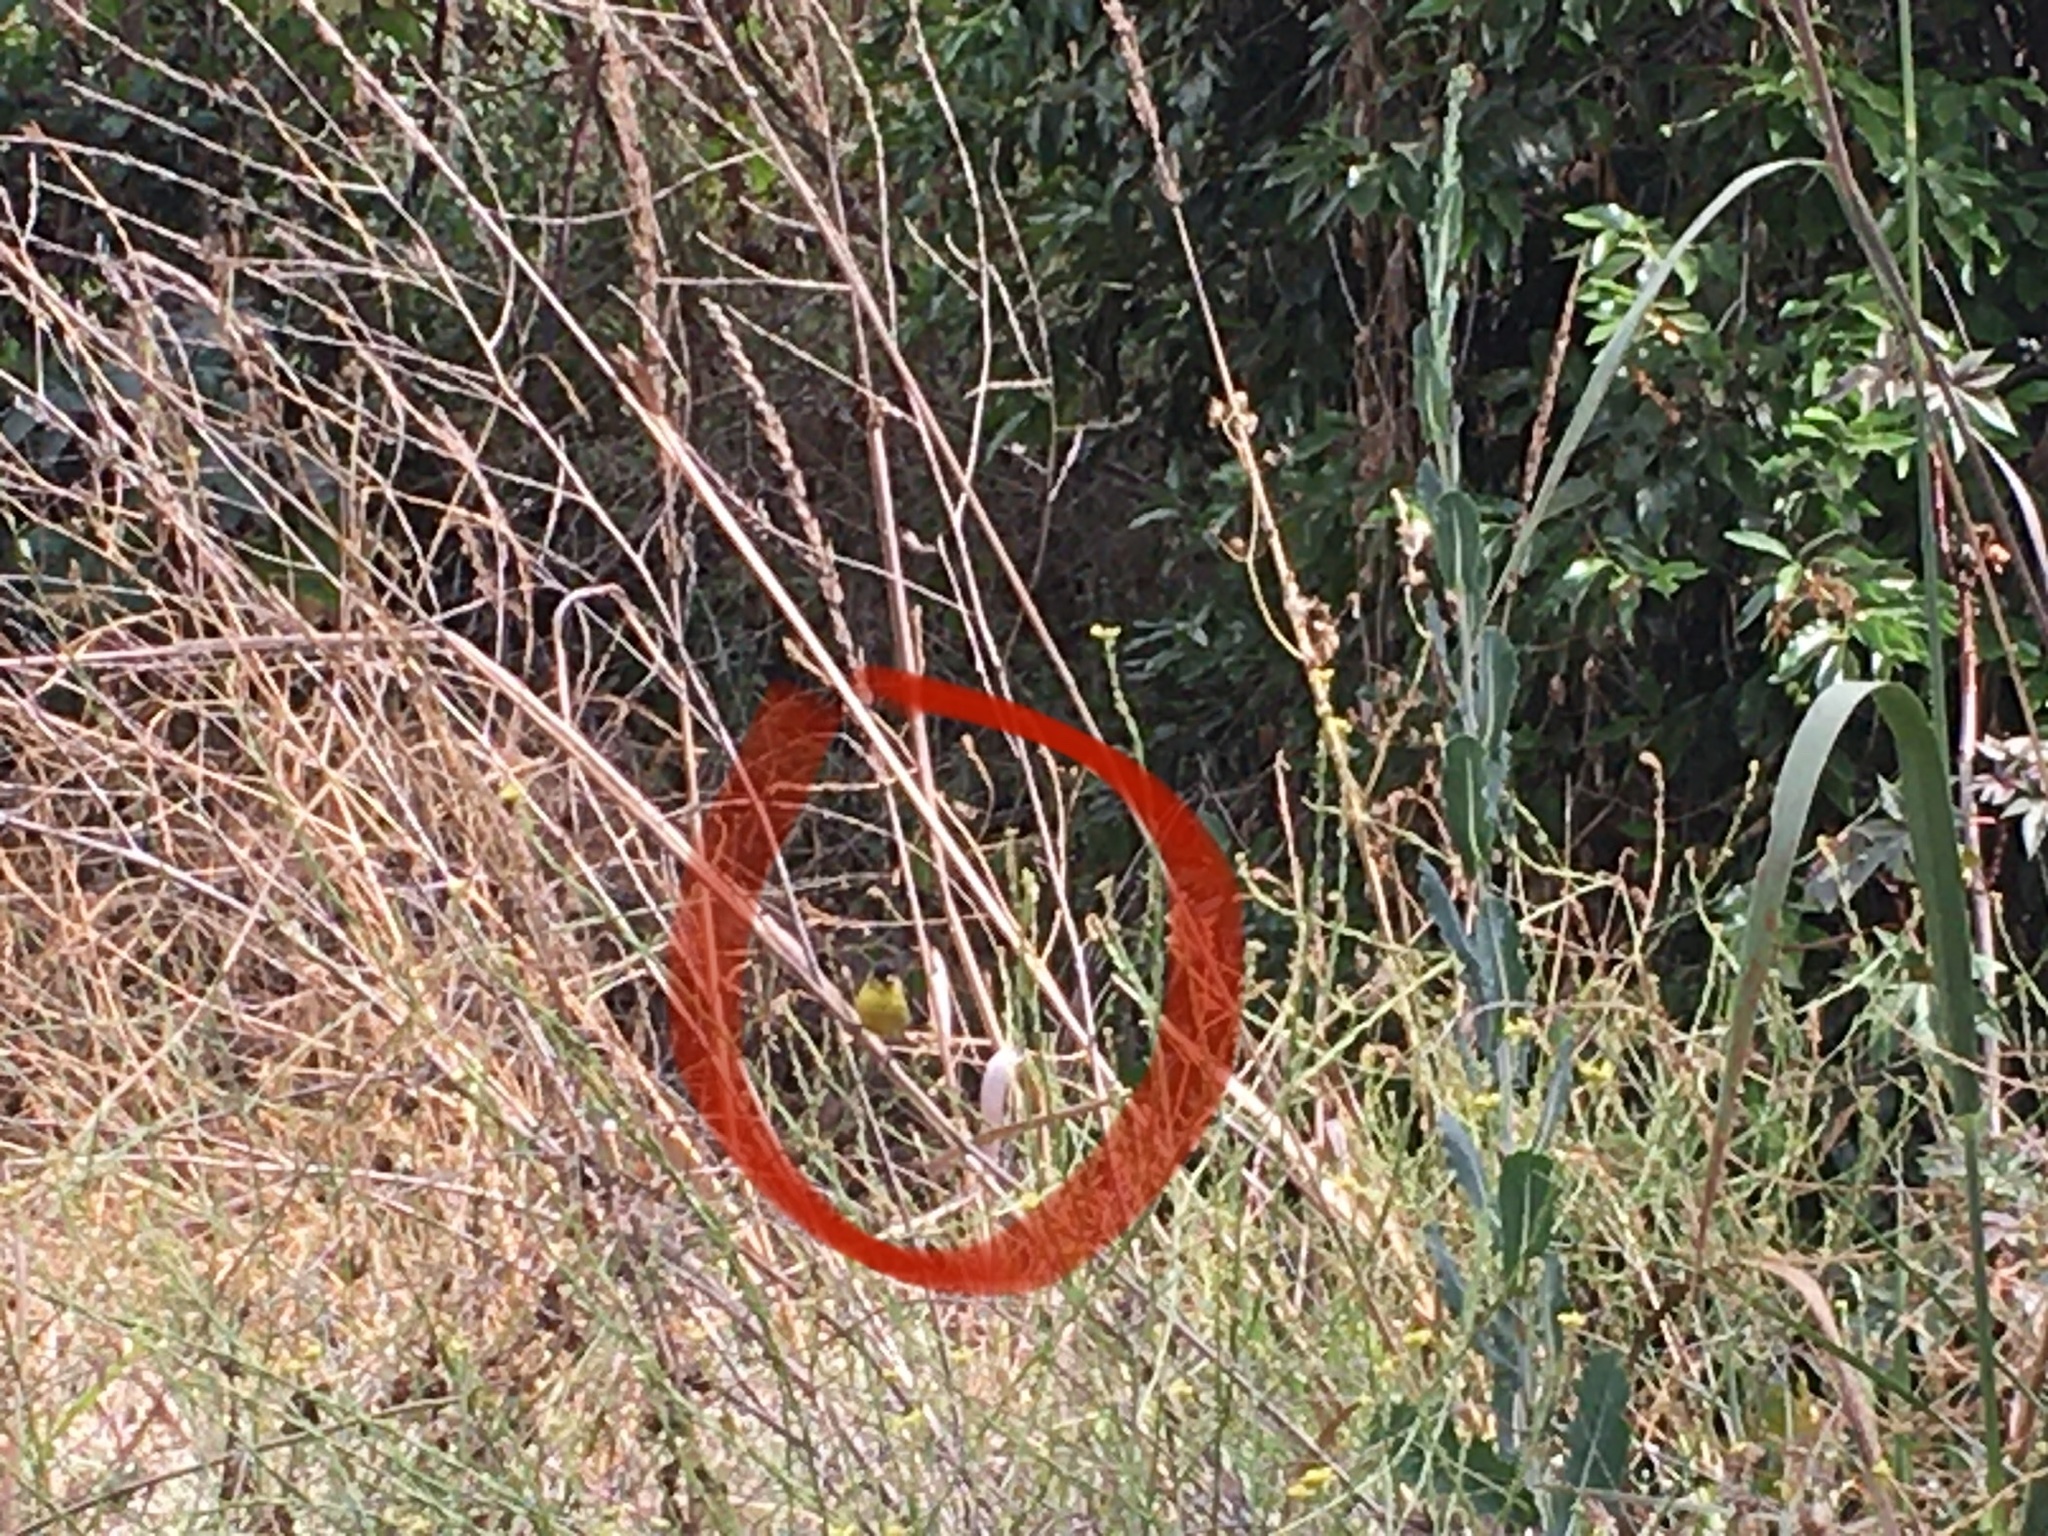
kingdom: Animalia
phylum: Chordata
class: Aves
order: Passeriformes
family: Fringillidae
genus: Spinus
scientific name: Spinus psaltria
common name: Lesser goldfinch
